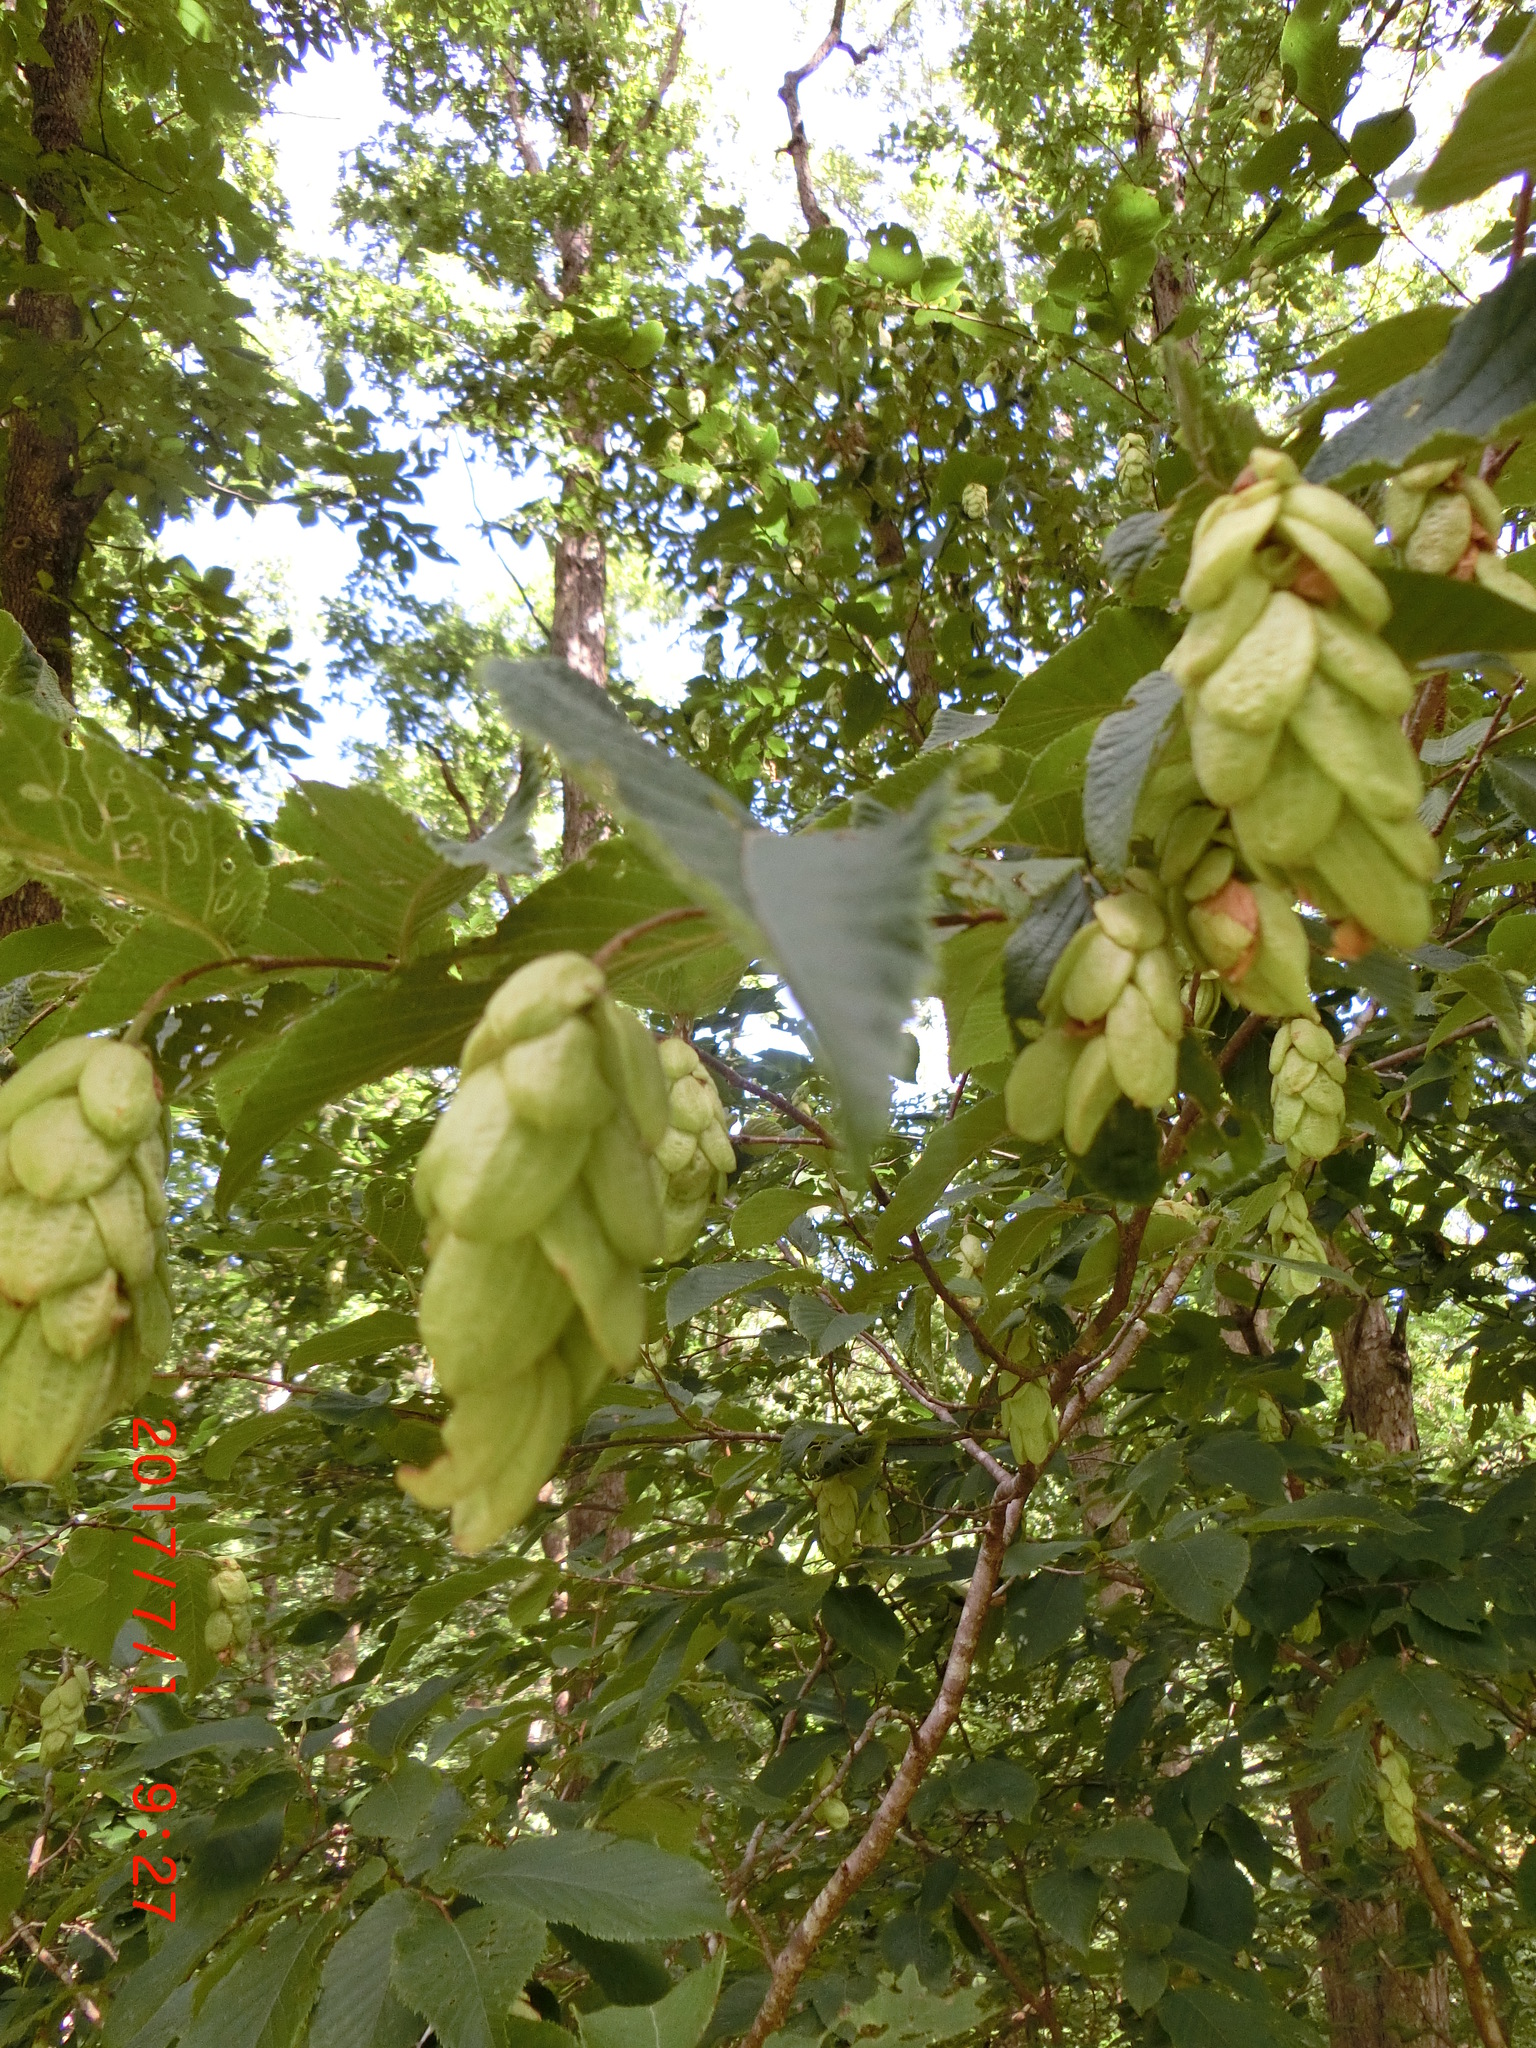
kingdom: Plantae
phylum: Tracheophyta
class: Magnoliopsida
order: Fagales
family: Betulaceae
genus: Ostrya
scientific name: Ostrya virginiana
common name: Ironwood
